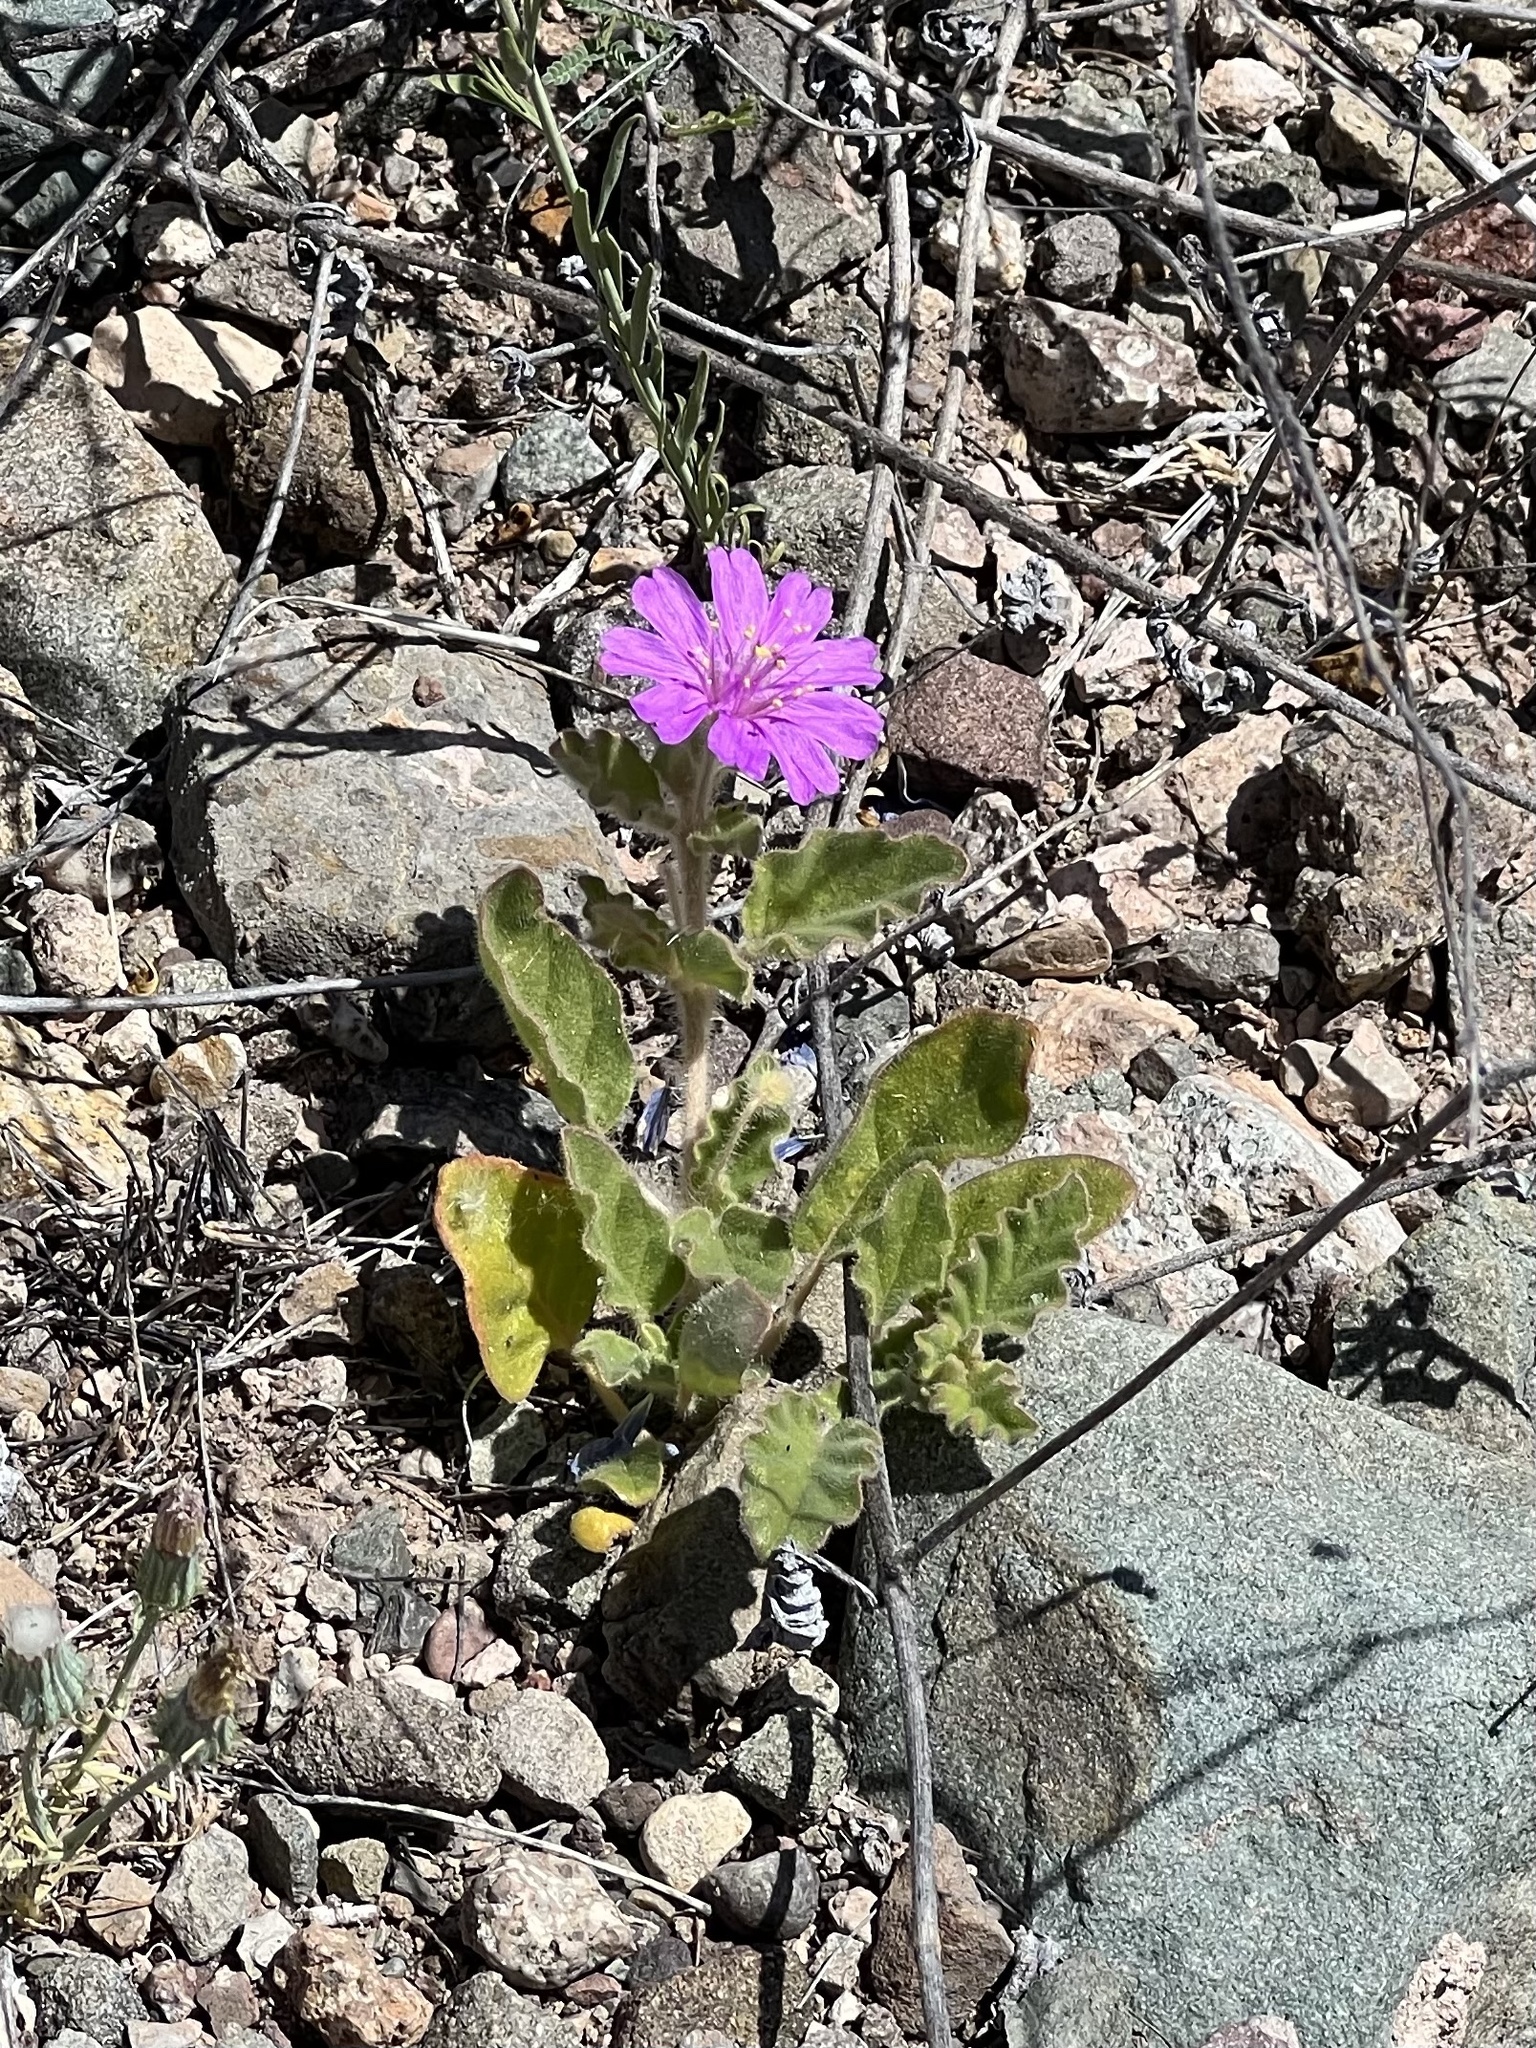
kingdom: Plantae
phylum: Tracheophyta
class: Magnoliopsida
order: Caryophyllales
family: Nyctaginaceae
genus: Allionia
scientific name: Allionia incarnata
